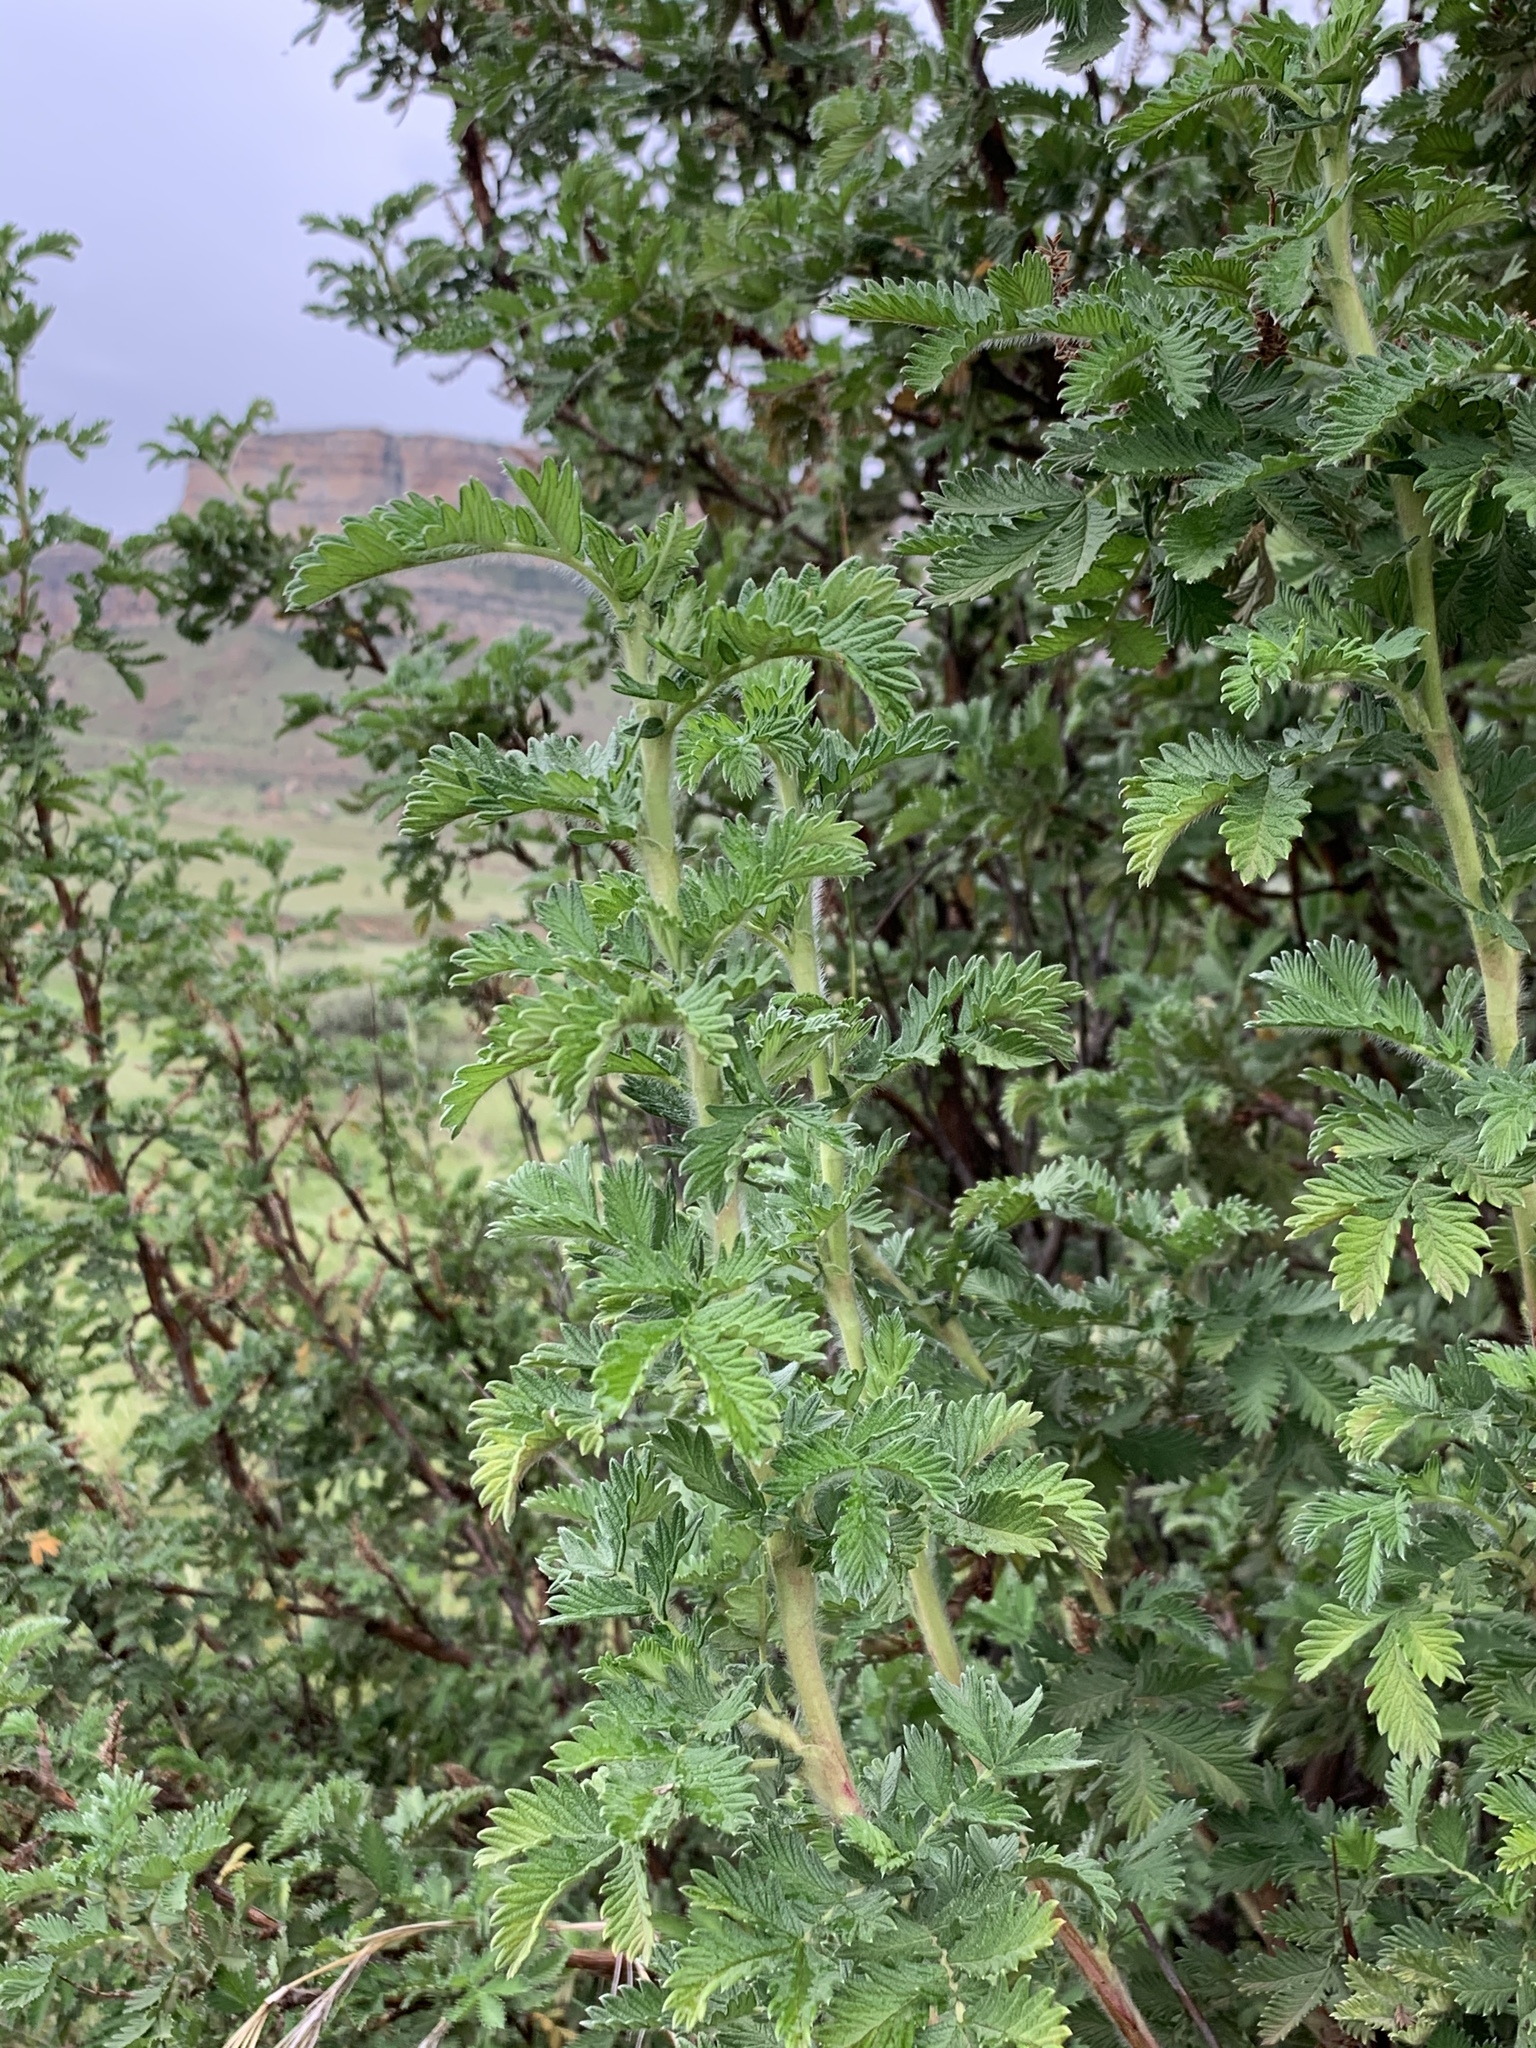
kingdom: Plantae
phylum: Tracheophyta
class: Magnoliopsida
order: Rosales
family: Rosaceae
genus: Leucosidea
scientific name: Leucosidea sericea
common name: Oldwood
